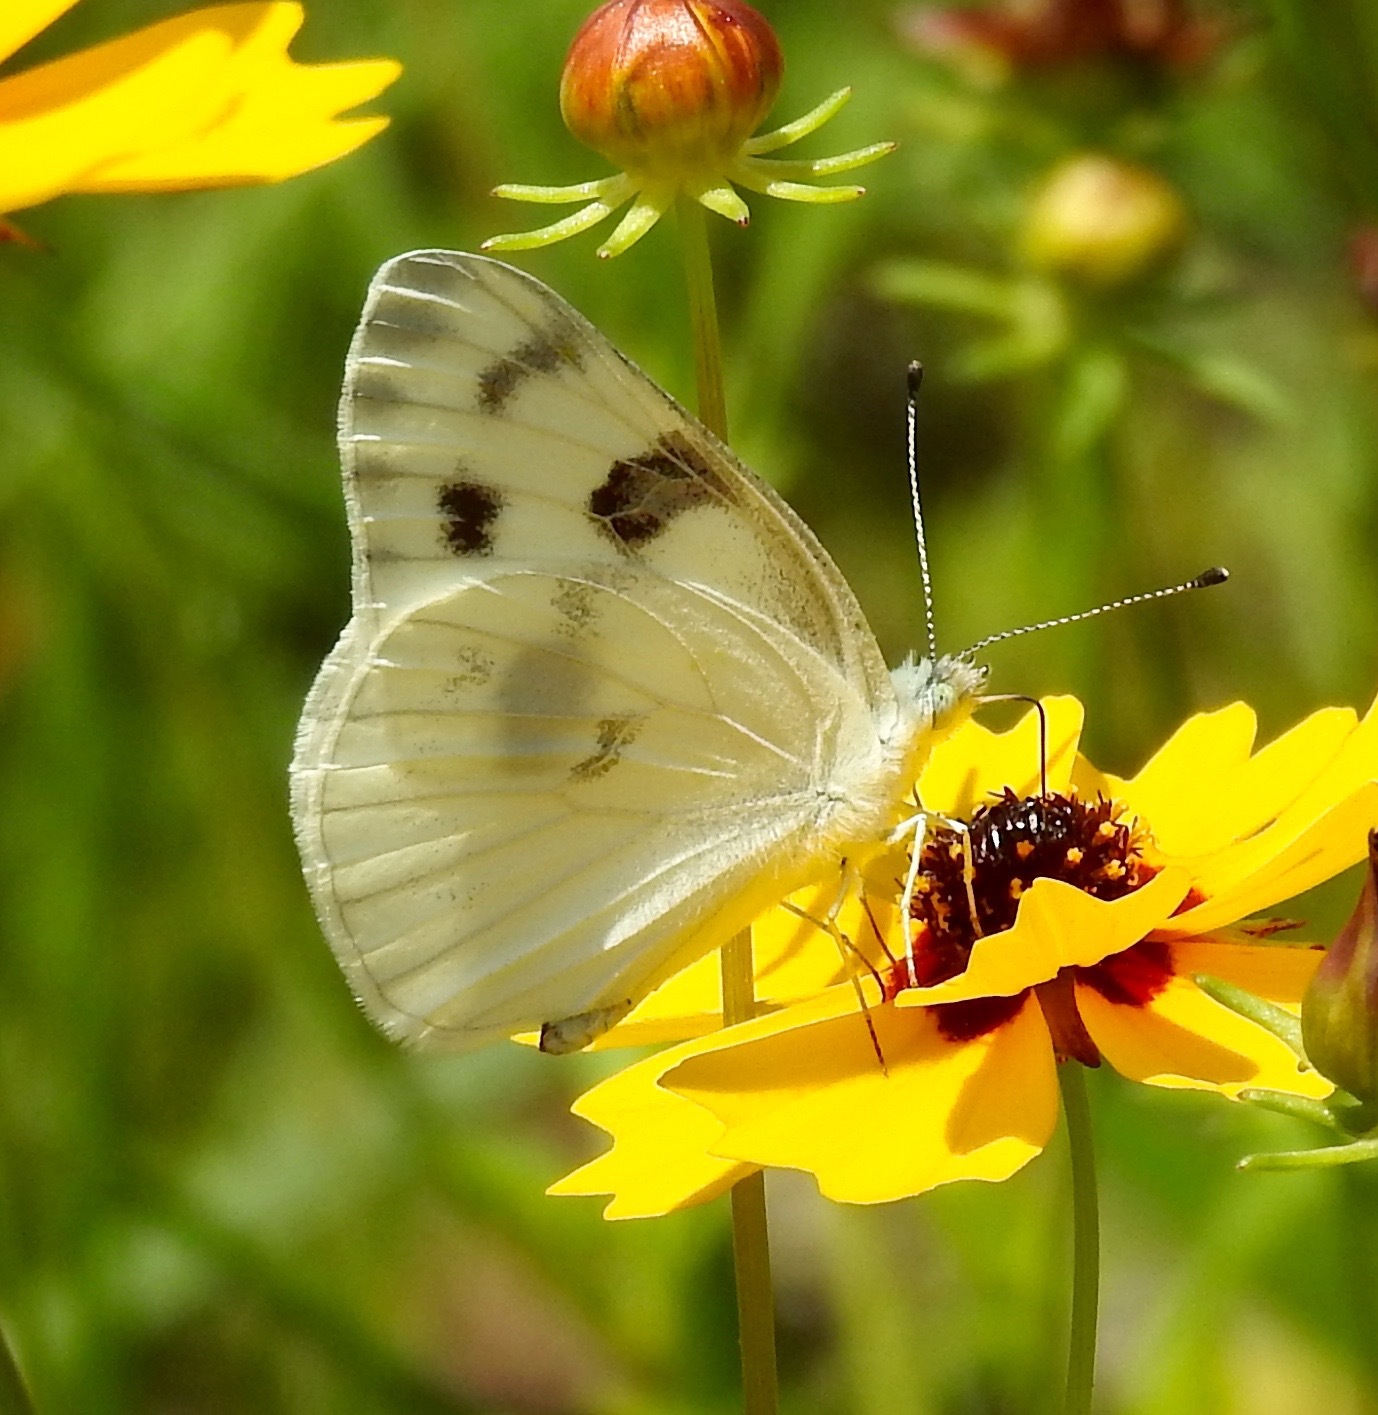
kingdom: Animalia
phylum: Arthropoda
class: Insecta
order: Lepidoptera
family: Pieridae
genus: Pontia
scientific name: Pontia protodice
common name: Checkered white
